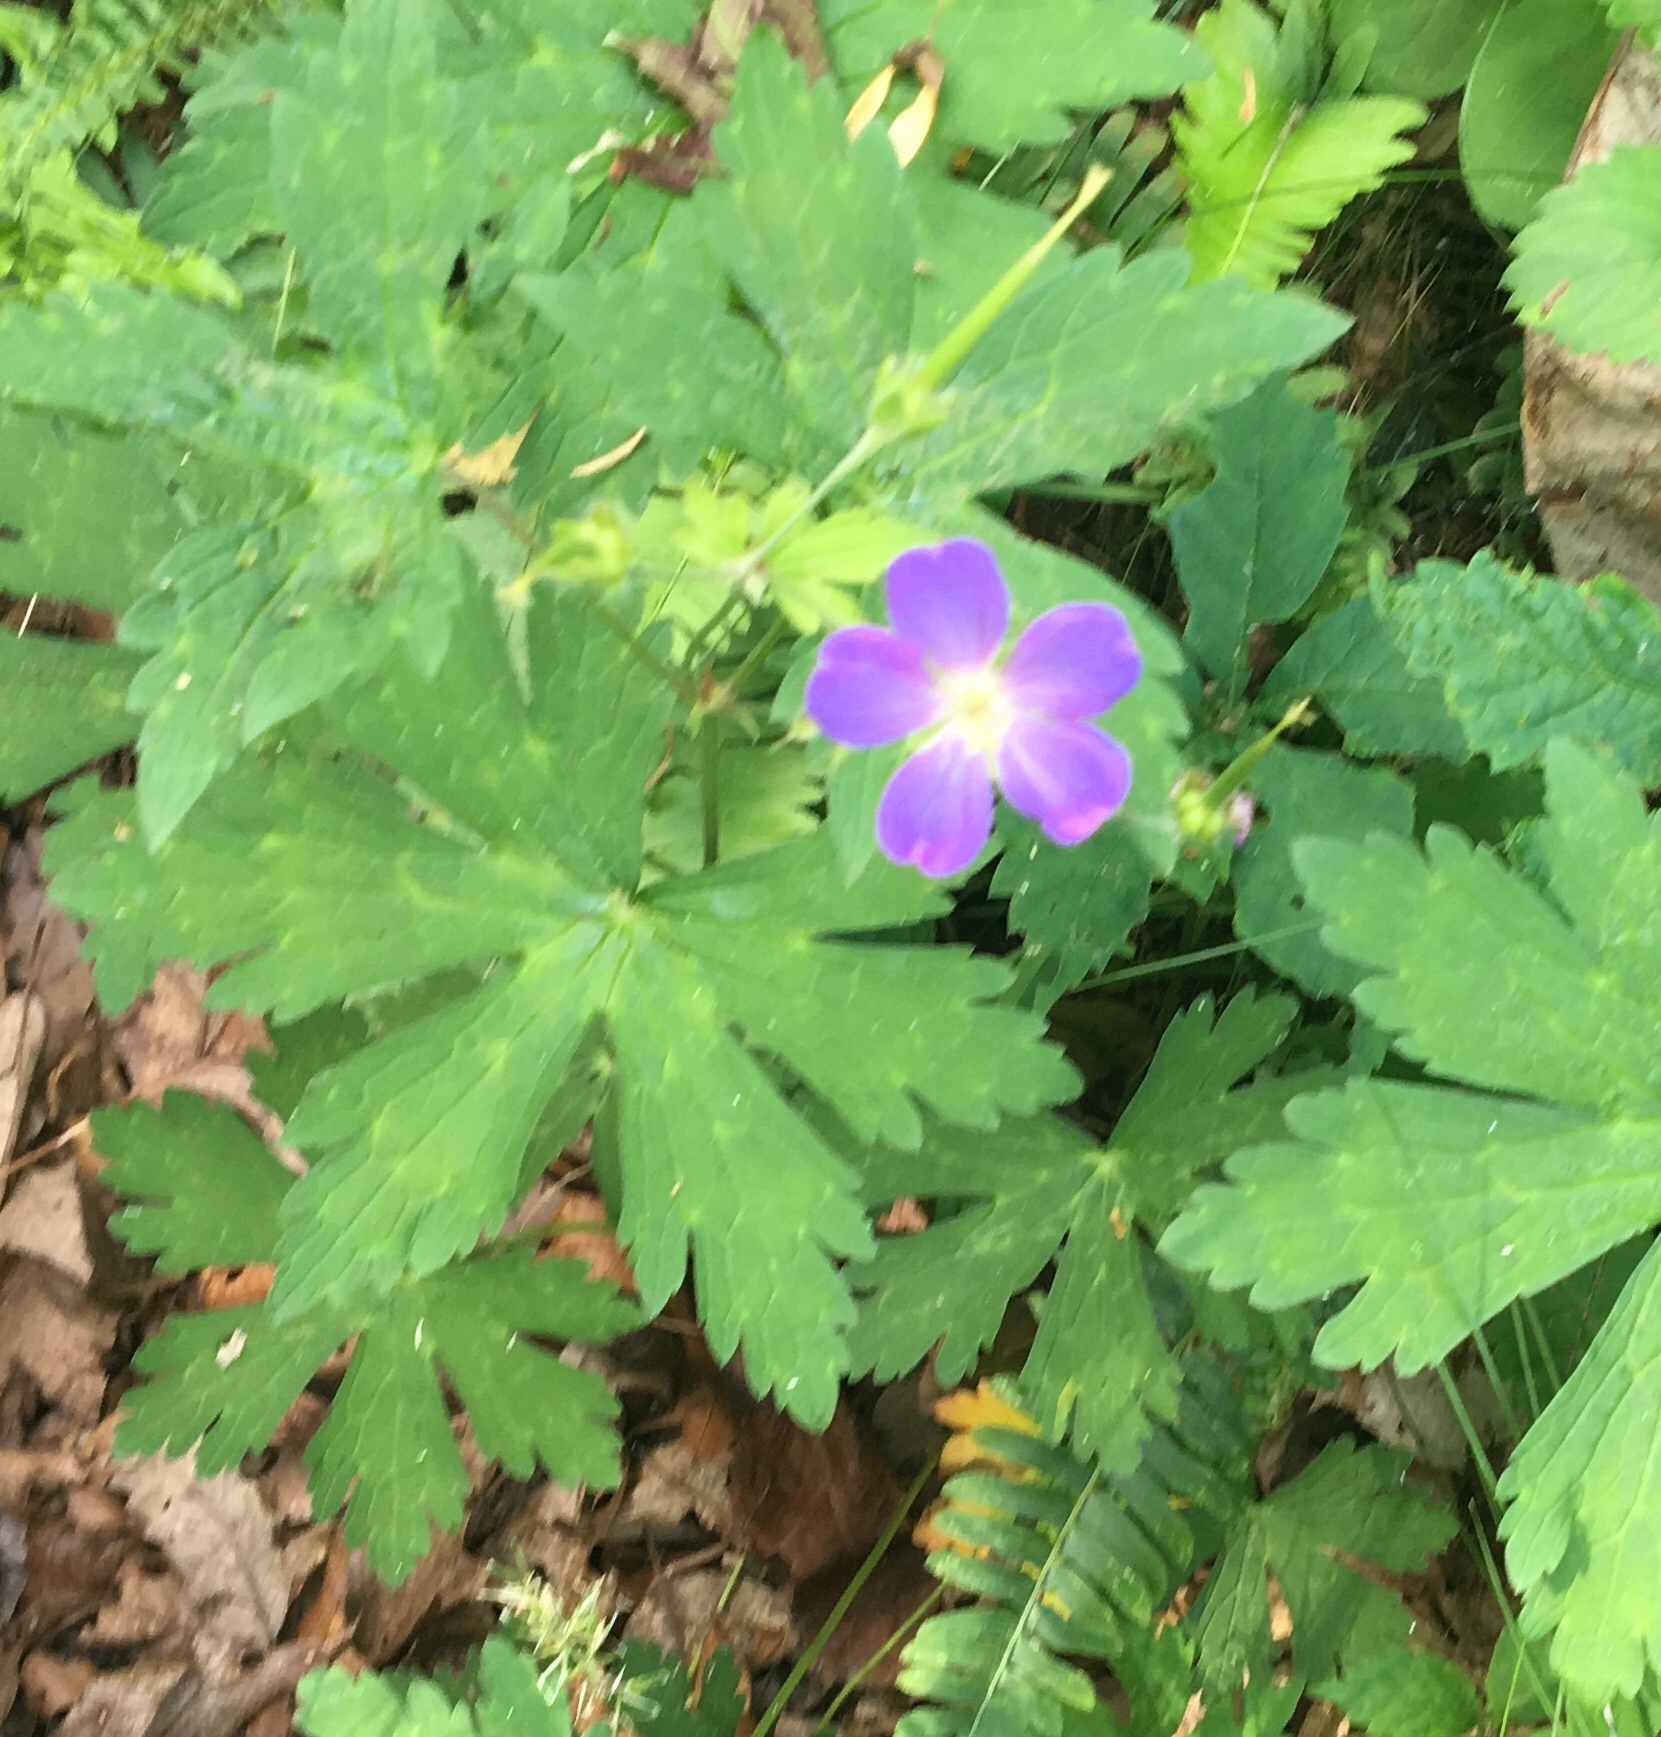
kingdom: Plantae
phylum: Tracheophyta
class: Magnoliopsida
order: Geraniales
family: Geraniaceae
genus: Geranium
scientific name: Geranium maculatum
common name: Spotted geranium
